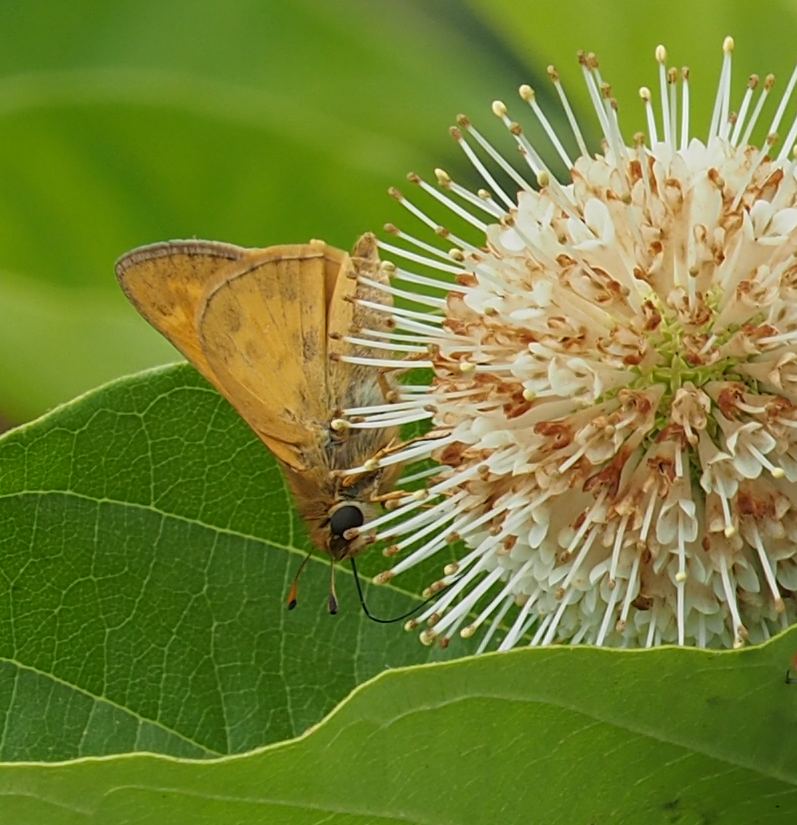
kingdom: Animalia
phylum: Arthropoda
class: Insecta
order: Lepidoptera
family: Hesperiidae
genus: Atalopedes
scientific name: Atalopedes
